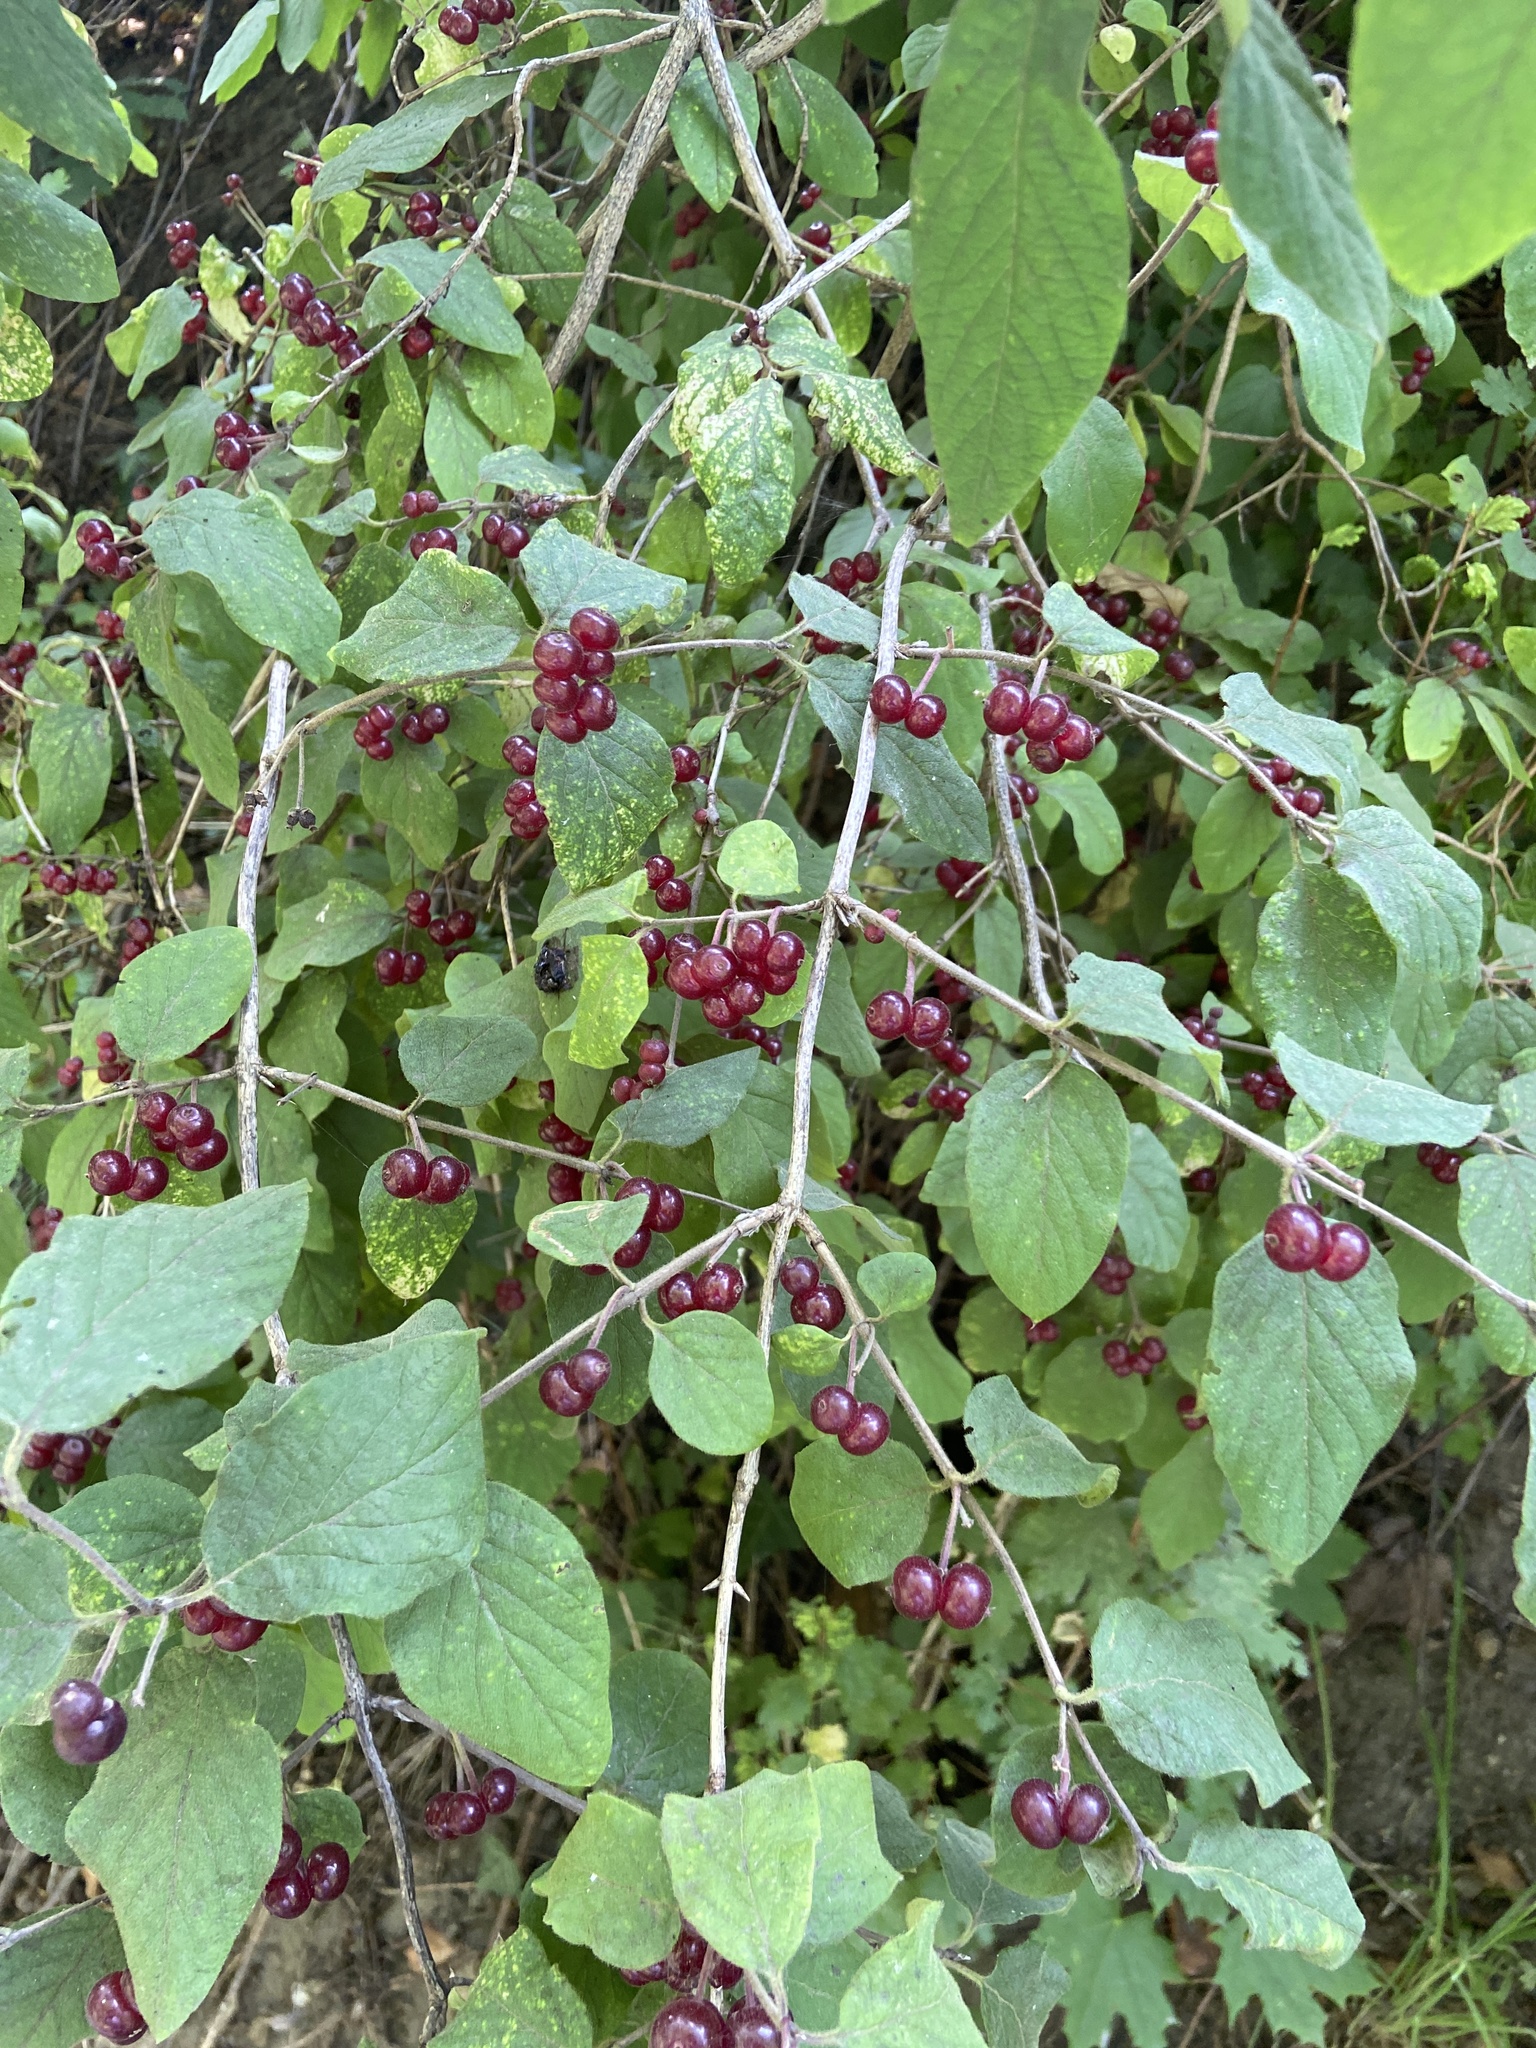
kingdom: Plantae
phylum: Tracheophyta
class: Magnoliopsida
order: Dipsacales
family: Caprifoliaceae
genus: Lonicera
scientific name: Lonicera xylosteum
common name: Fly honeysuckle
